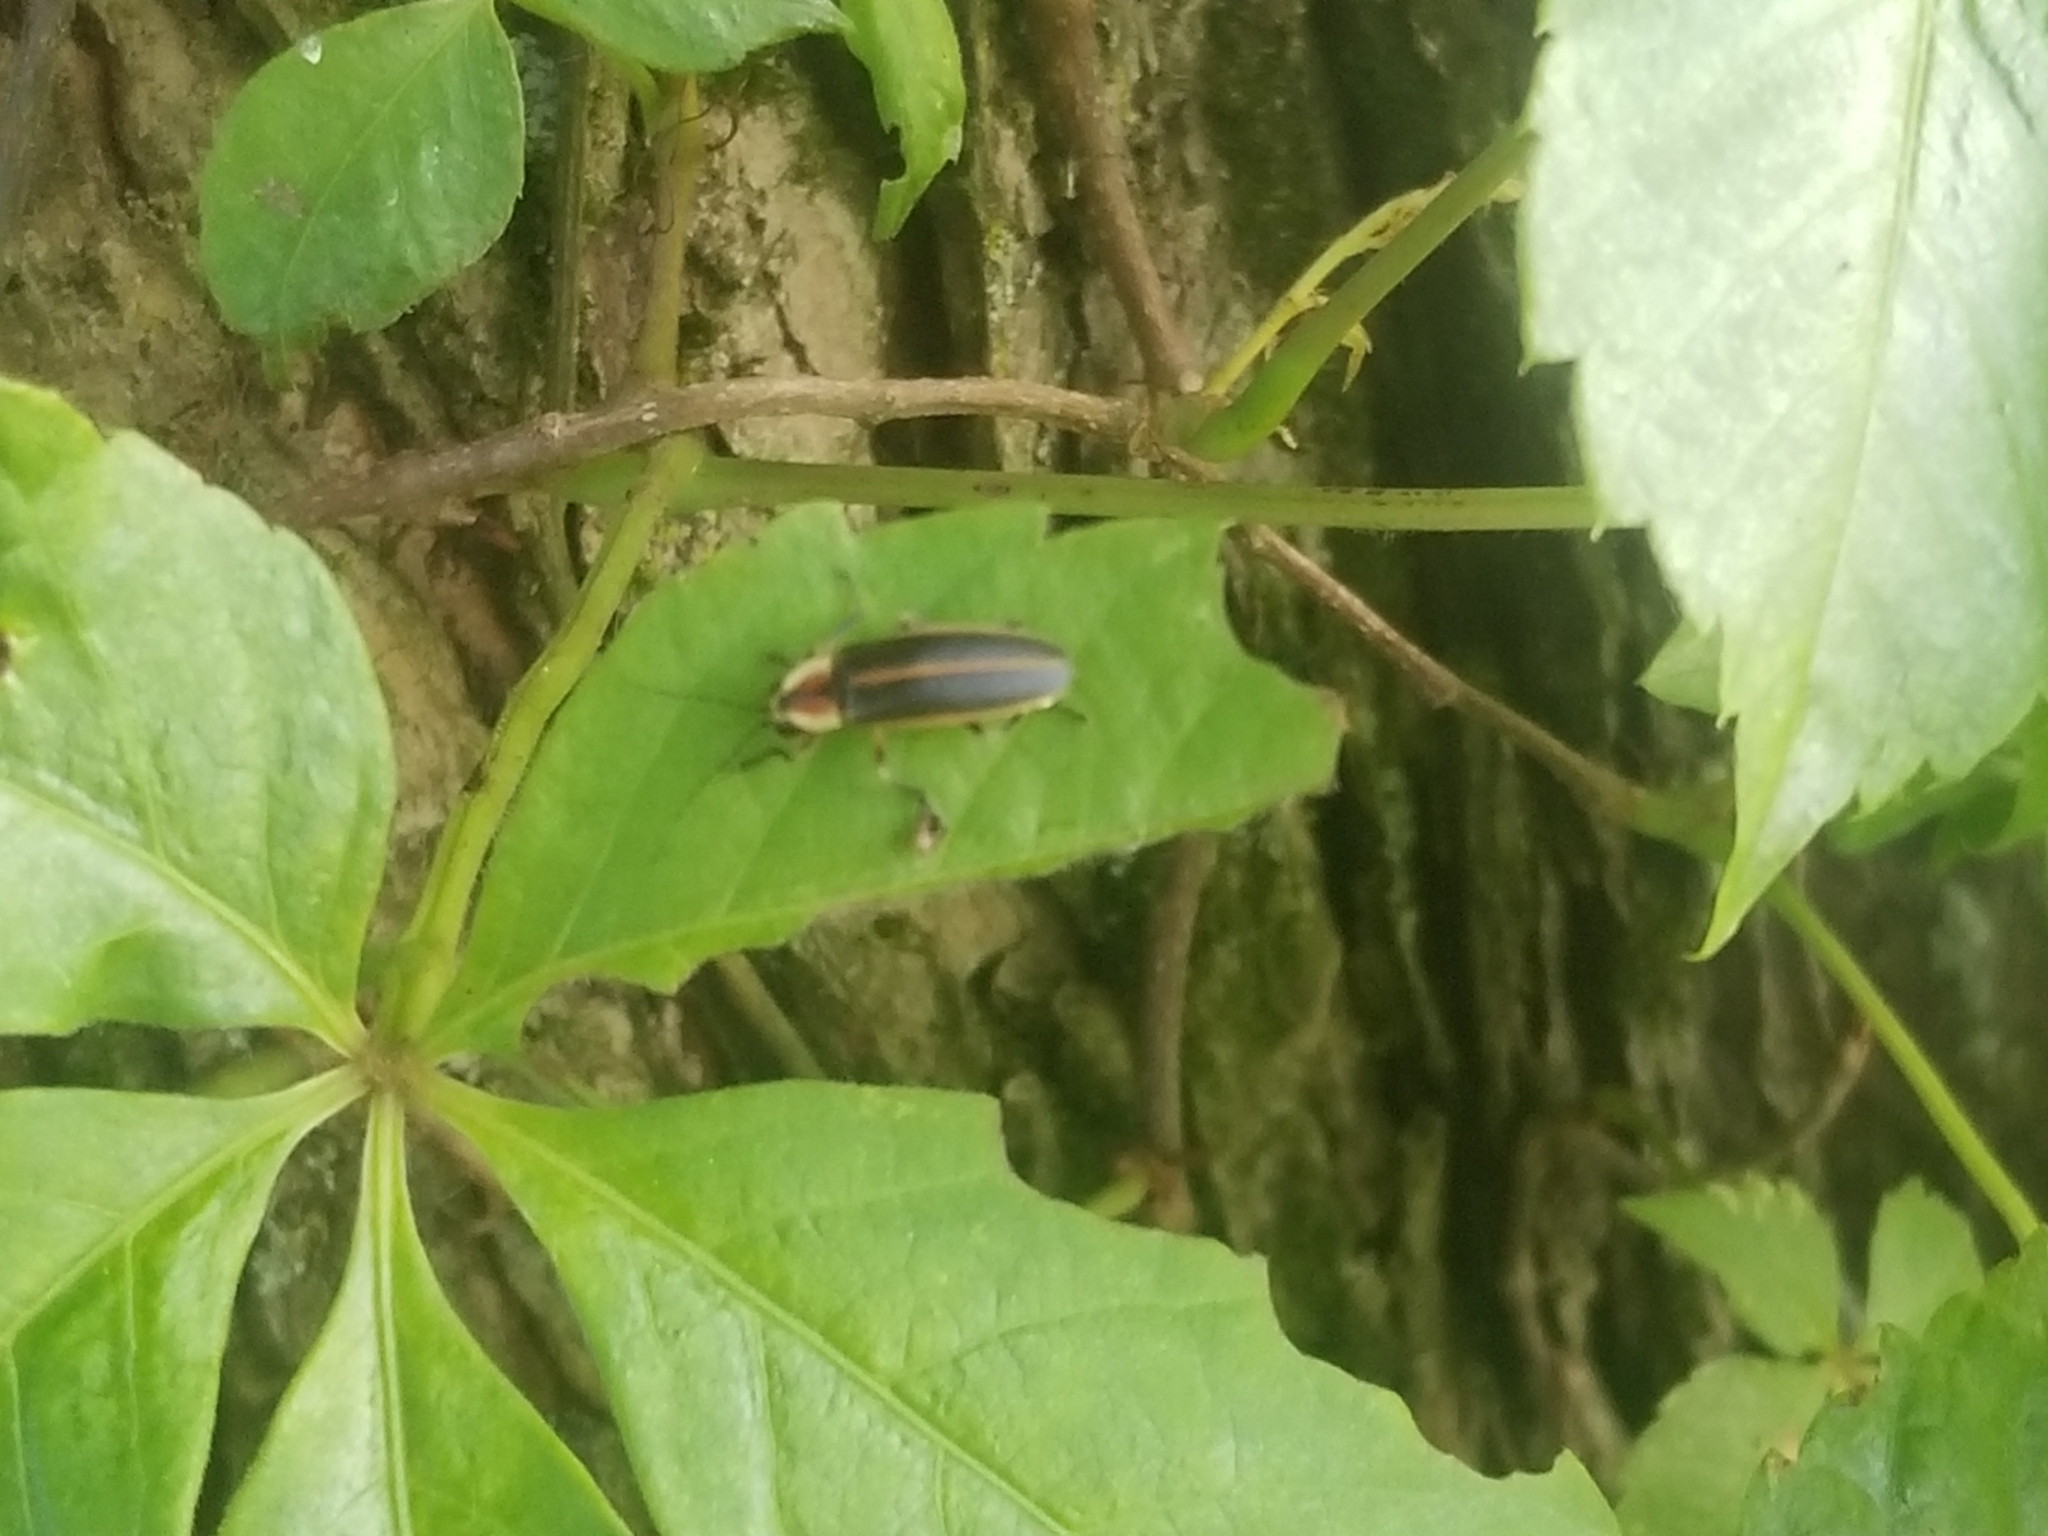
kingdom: Animalia
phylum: Arthropoda
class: Insecta
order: Coleoptera
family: Lampyridae
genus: Photuris
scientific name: Photuris
